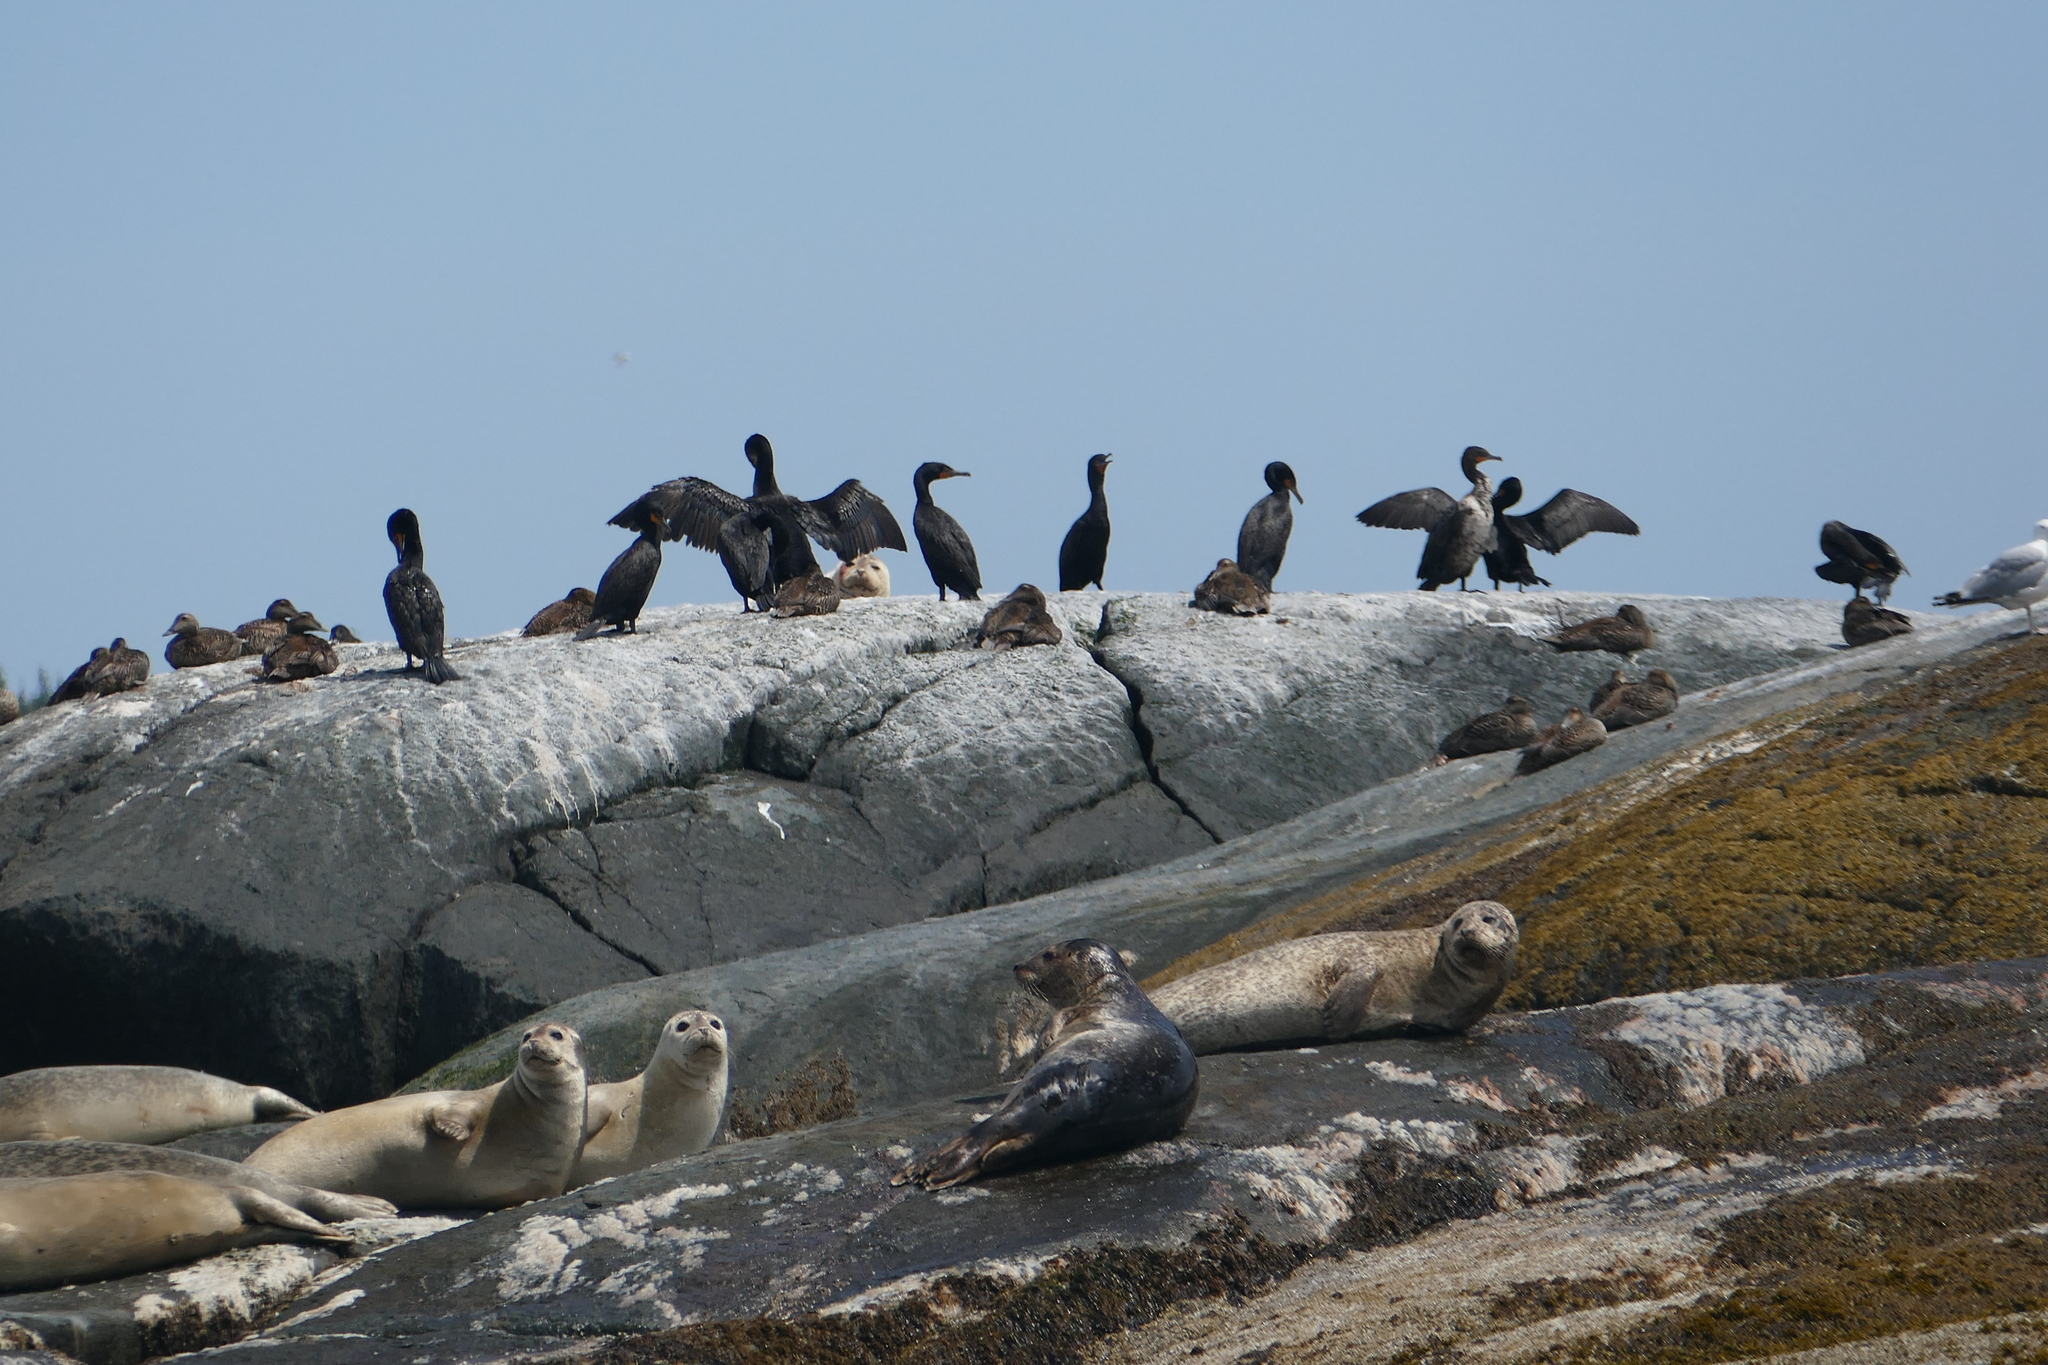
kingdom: Animalia
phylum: Chordata
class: Mammalia
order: Carnivora
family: Phocidae
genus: Phoca
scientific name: Phoca vitulina
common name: Harbor seal
